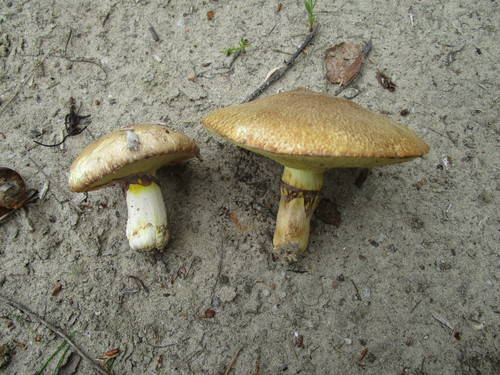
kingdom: Fungi
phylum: Basidiomycota
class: Agaricomycetes
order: Boletales
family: Suillaceae
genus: Suillus
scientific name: Suillus luteus
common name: Slippery jack
